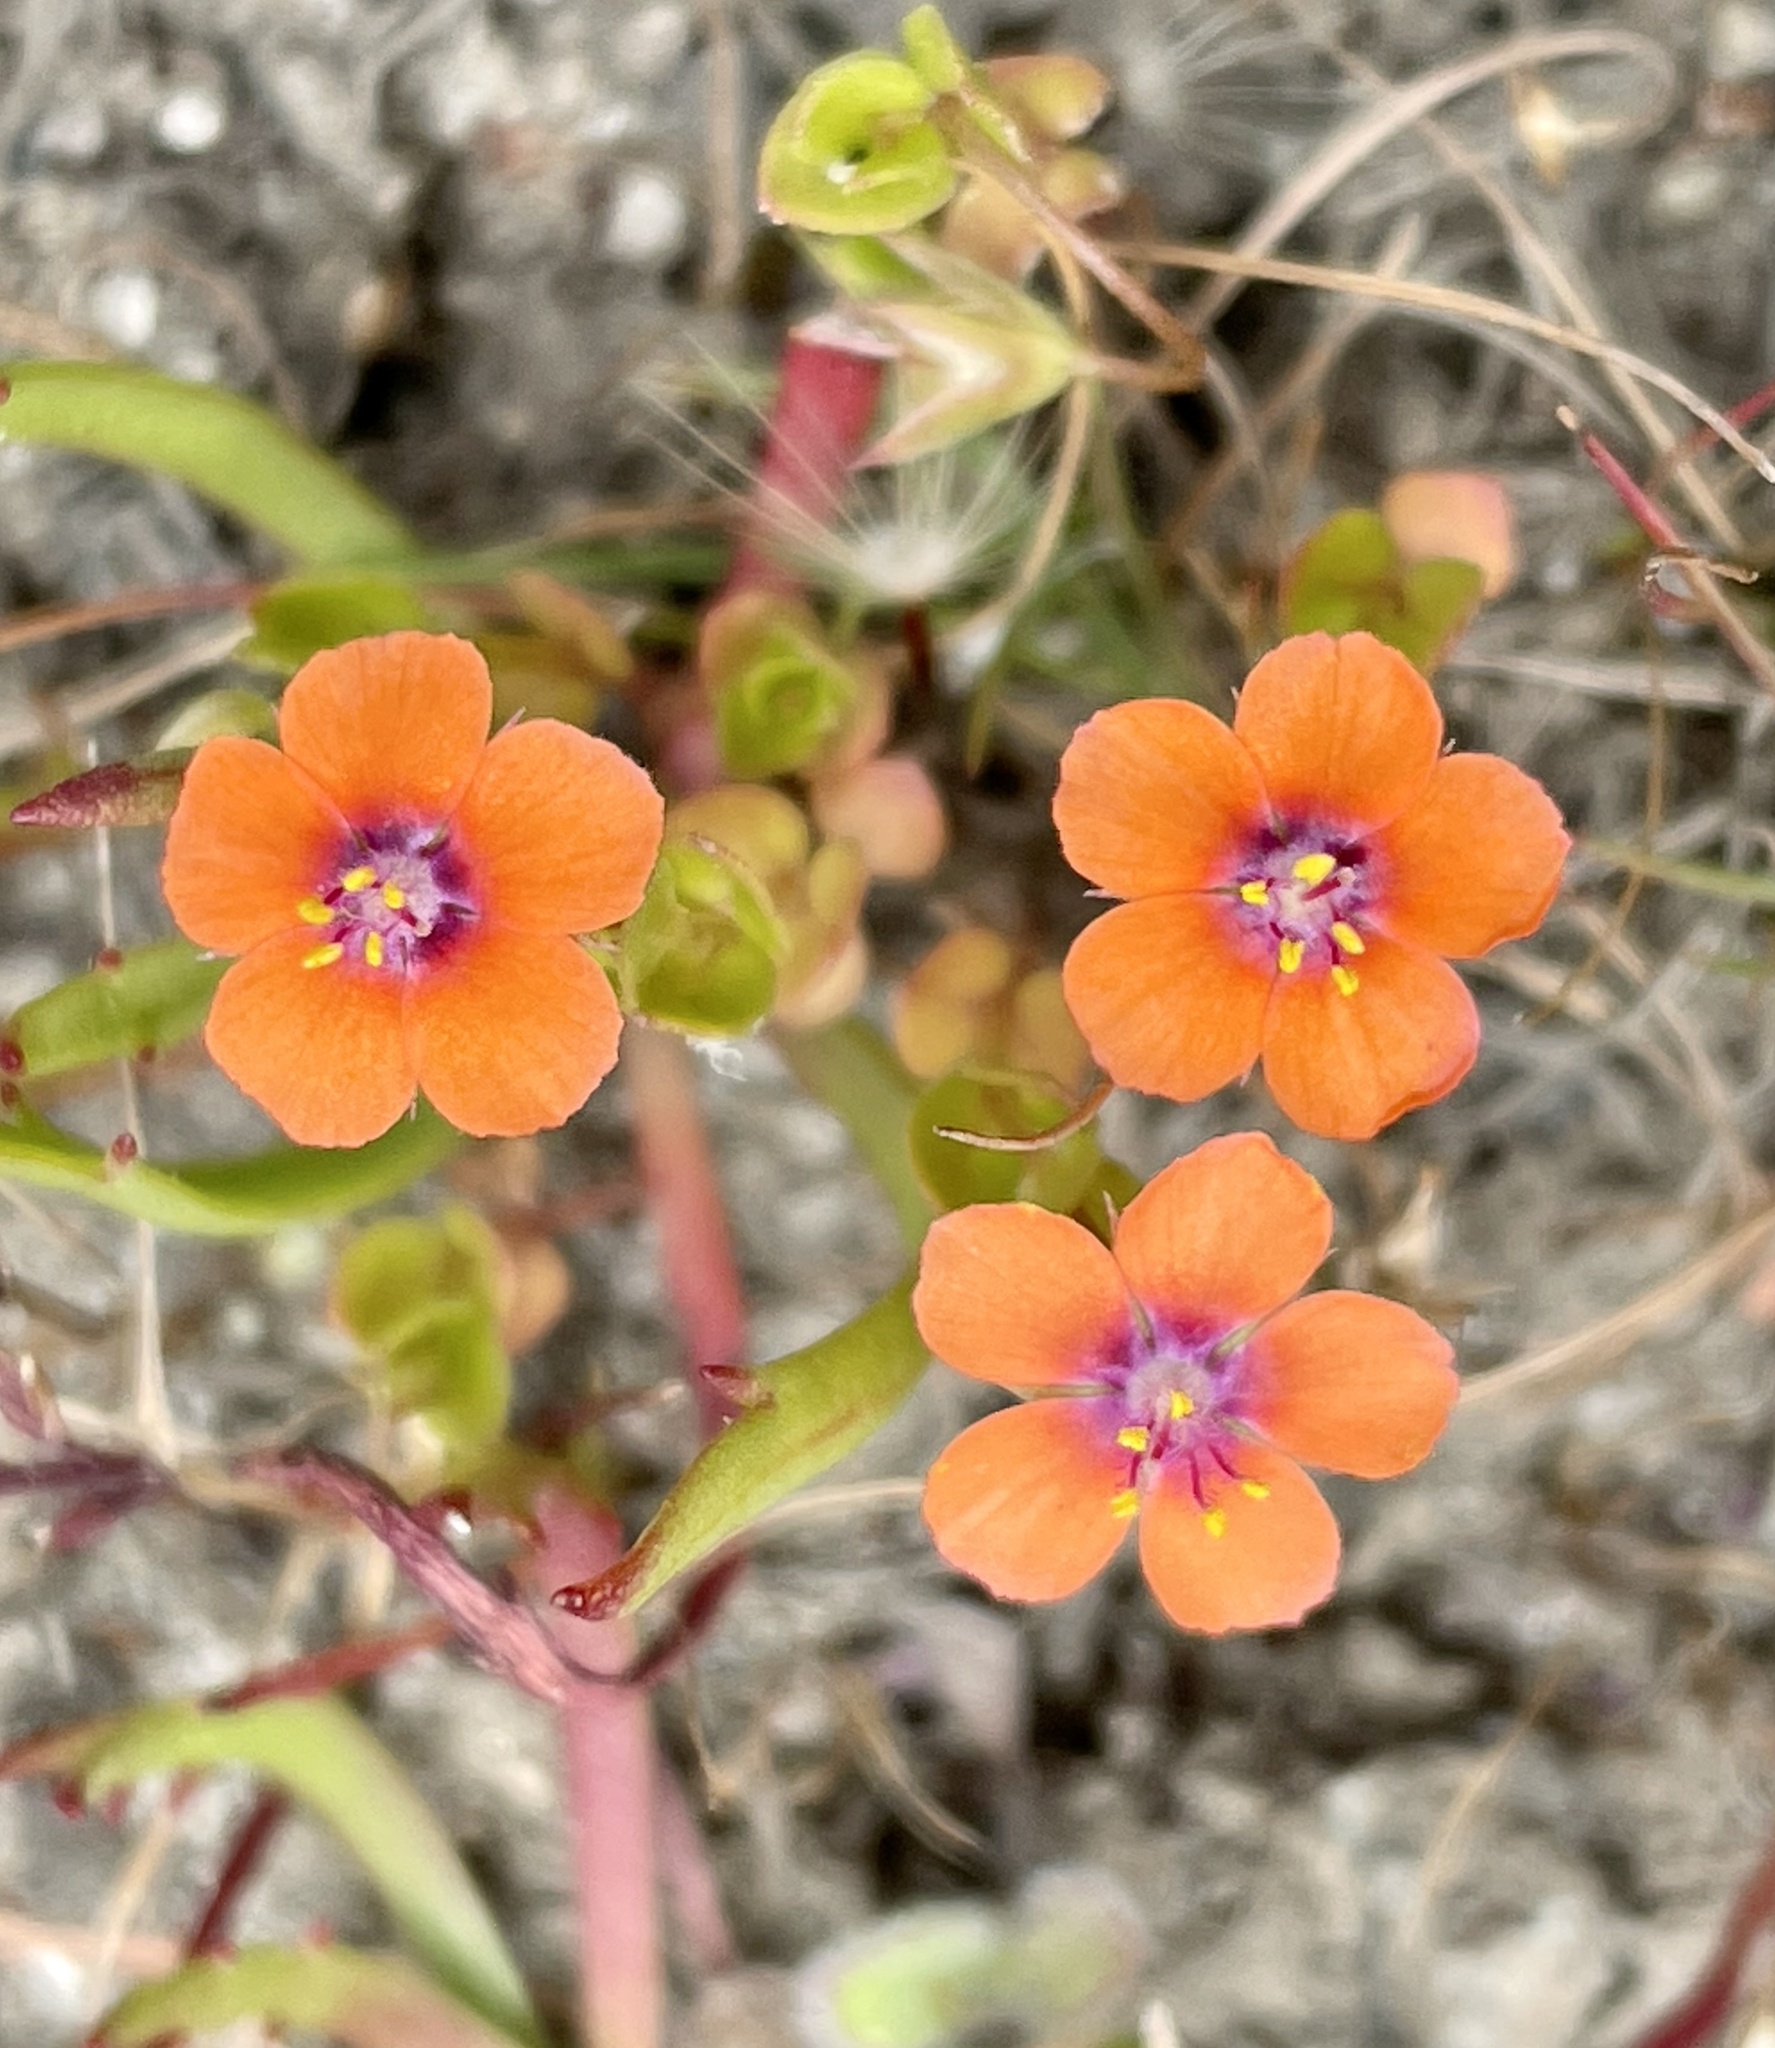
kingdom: Plantae
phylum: Tracheophyta
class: Magnoliopsida
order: Ericales
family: Primulaceae
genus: Lysimachia
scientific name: Lysimachia arvensis
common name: Scarlet pimpernel
